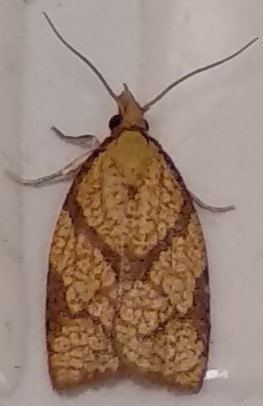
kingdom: Animalia
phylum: Arthropoda
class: Insecta
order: Lepidoptera
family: Tortricidae
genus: Cenopis
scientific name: Cenopis reticulatana
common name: Reticulated fruitworm moth
